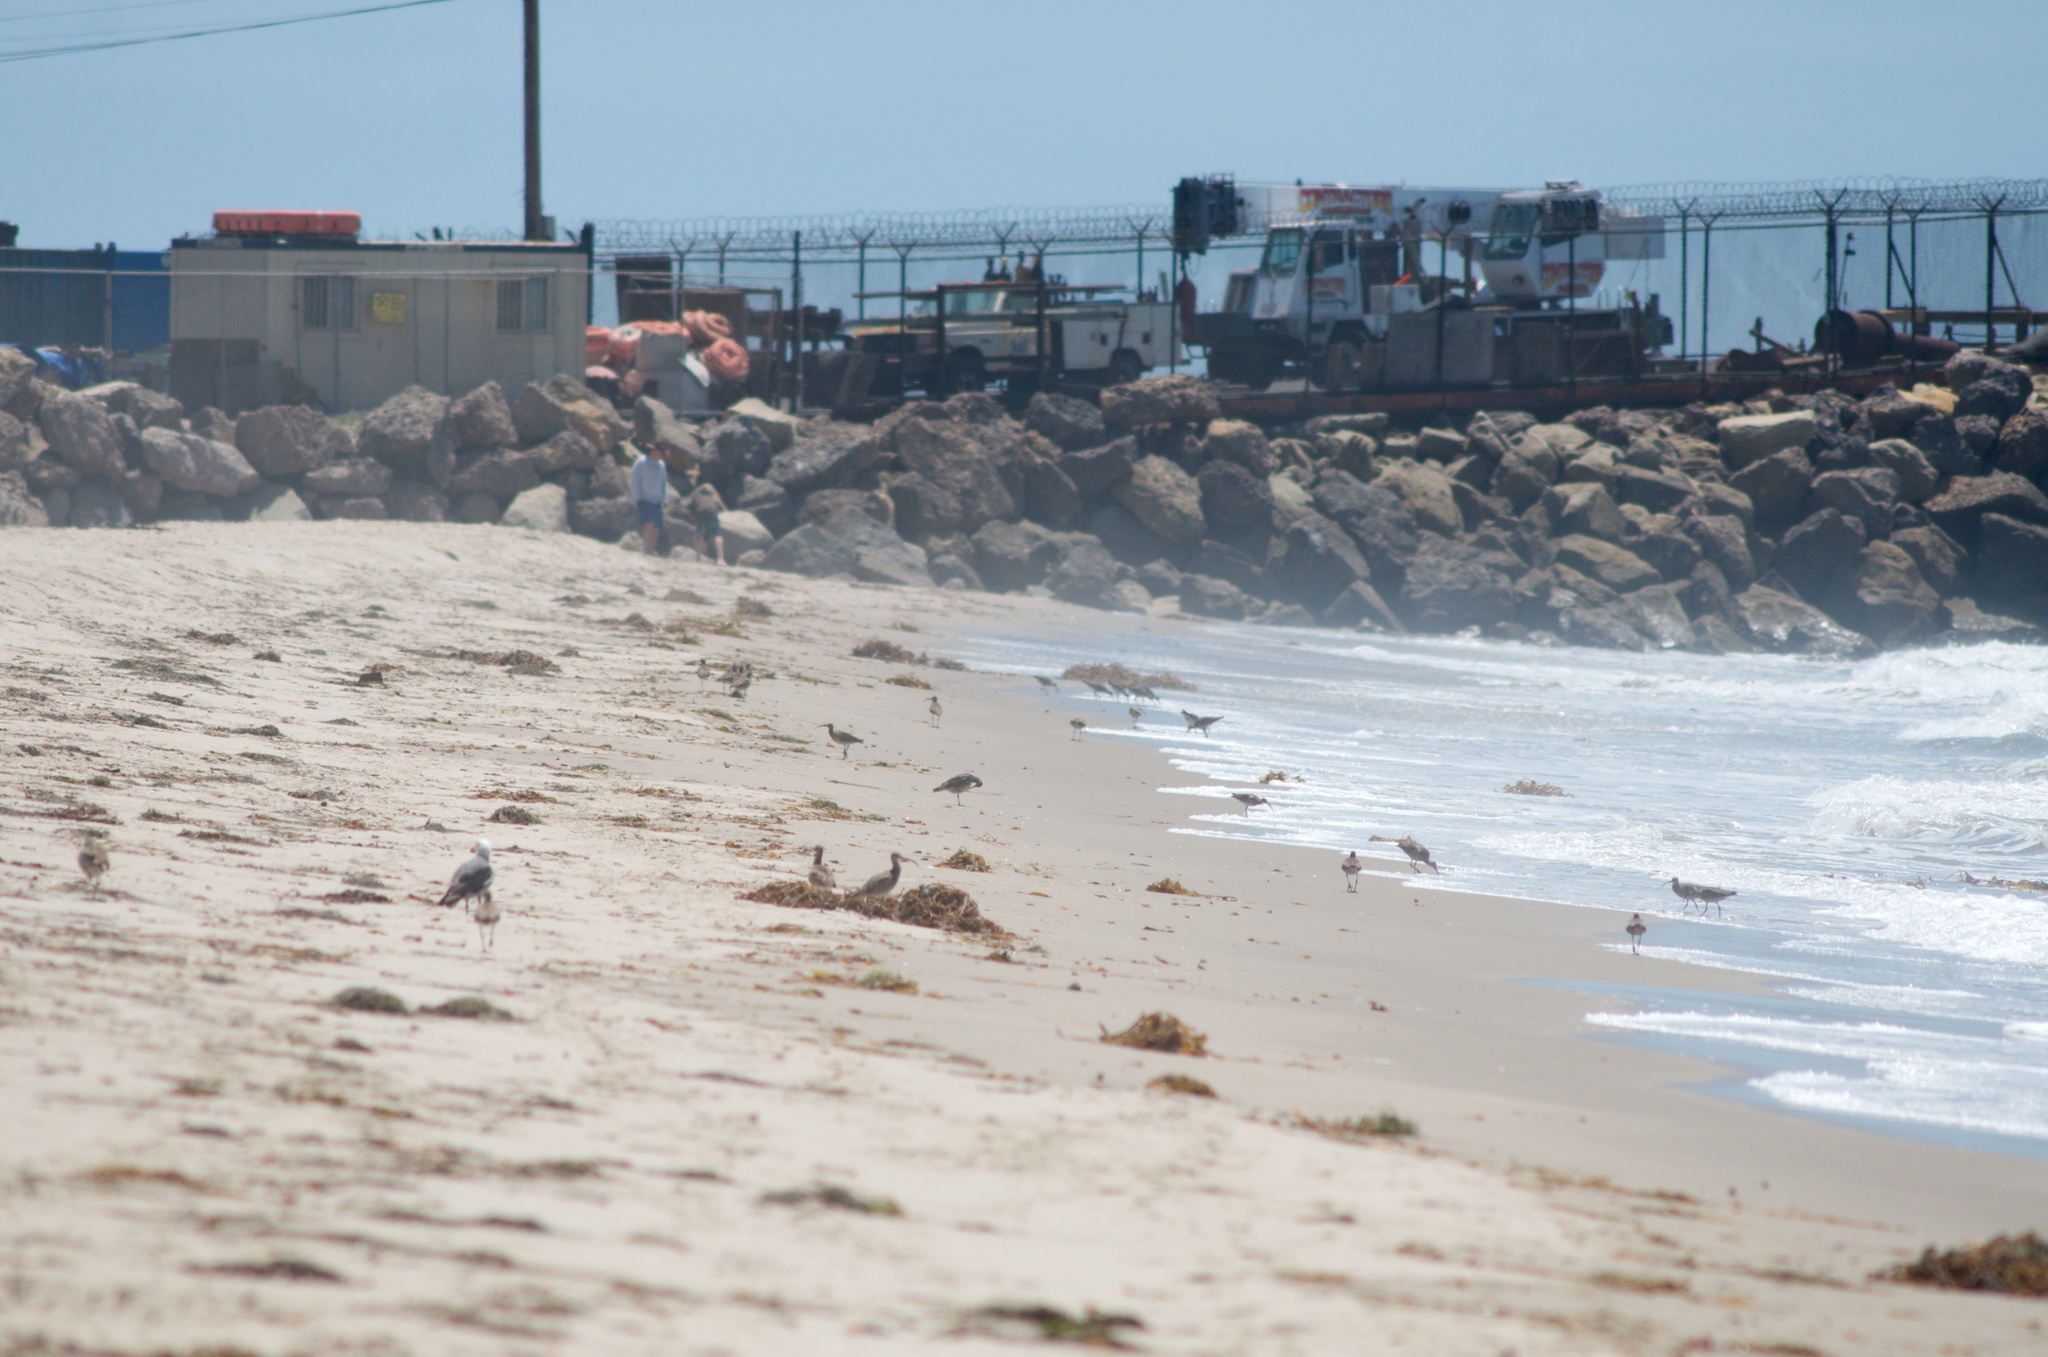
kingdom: Animalia
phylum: Chordata
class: Aves
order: Charadriiformes
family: Scolopacidae
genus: Numenius
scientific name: Numenius phaeopus
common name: Whimbrel
